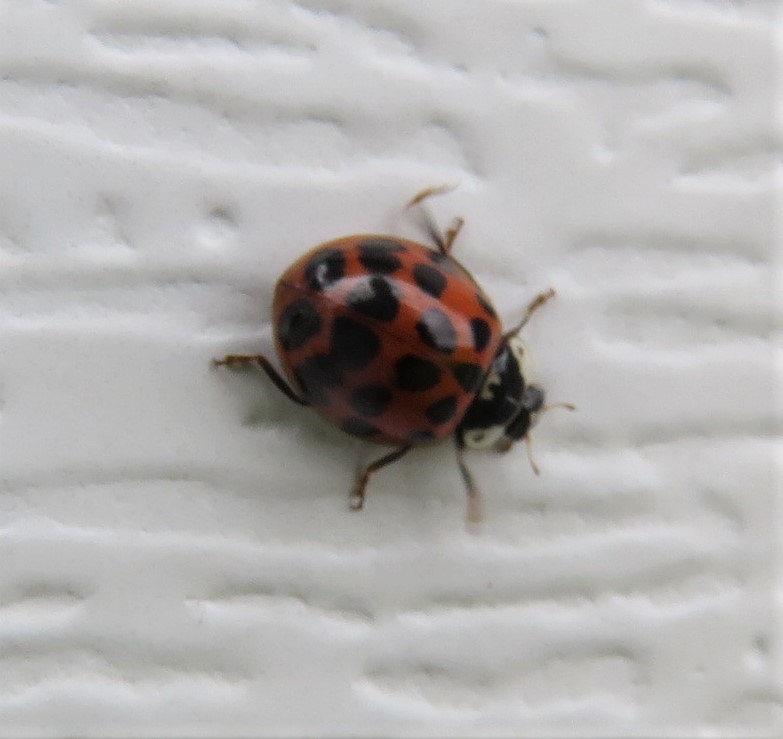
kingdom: Animalia
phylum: Arthropoda
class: Insecta
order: Coleoptera
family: Coccinellidae
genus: Harmonia
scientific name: Harmonia axyridis
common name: Harlequin ladybird
